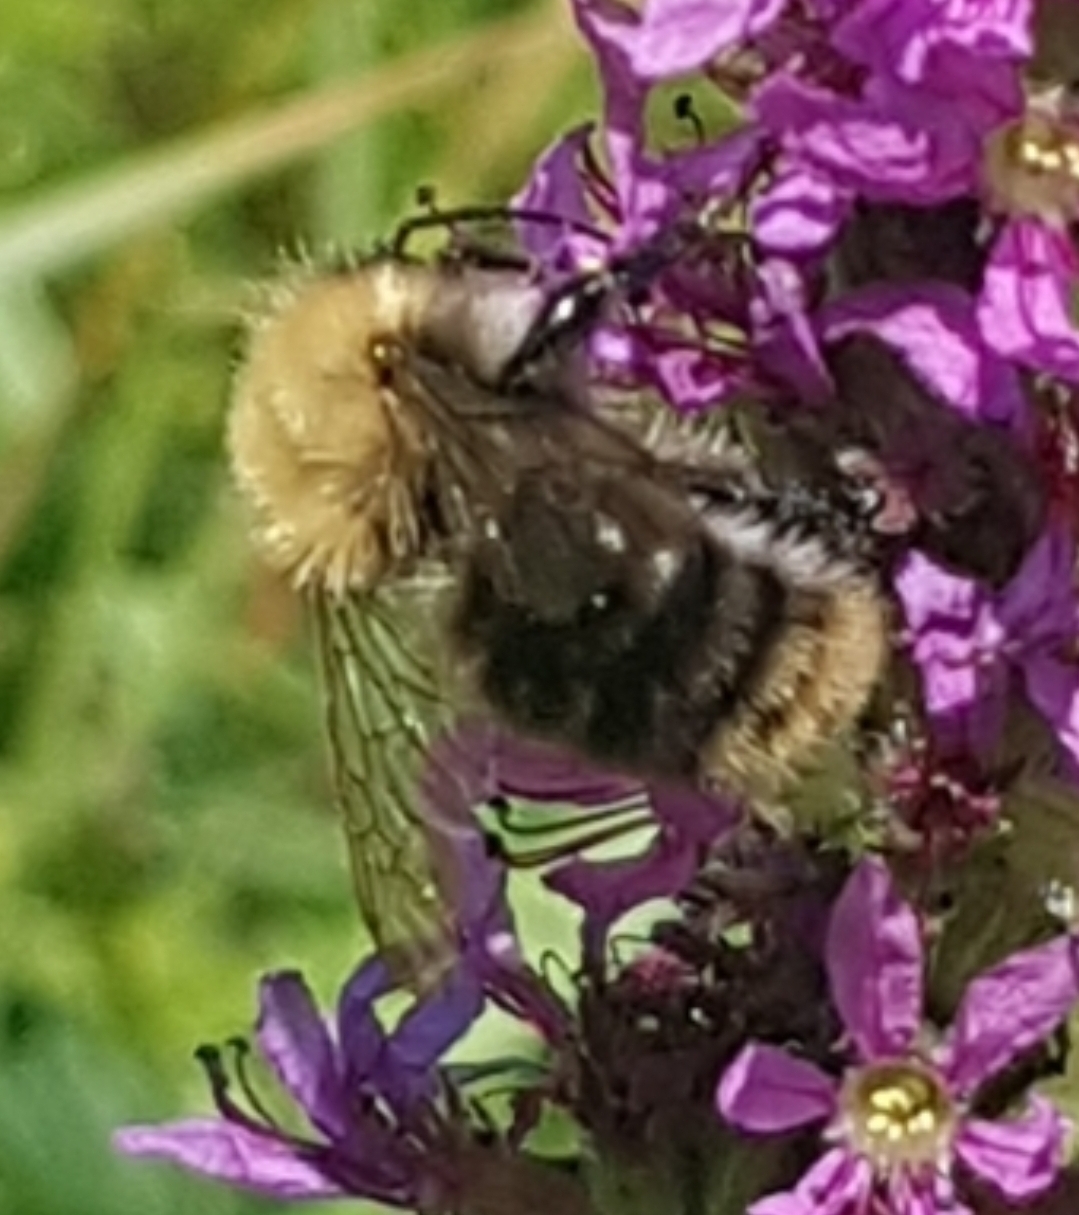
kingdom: Animalia
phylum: Arthropoda
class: Insecta
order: Hymenoptera
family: Apidae
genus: Bombus
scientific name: Bombus pascuorum
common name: Common carder bee
